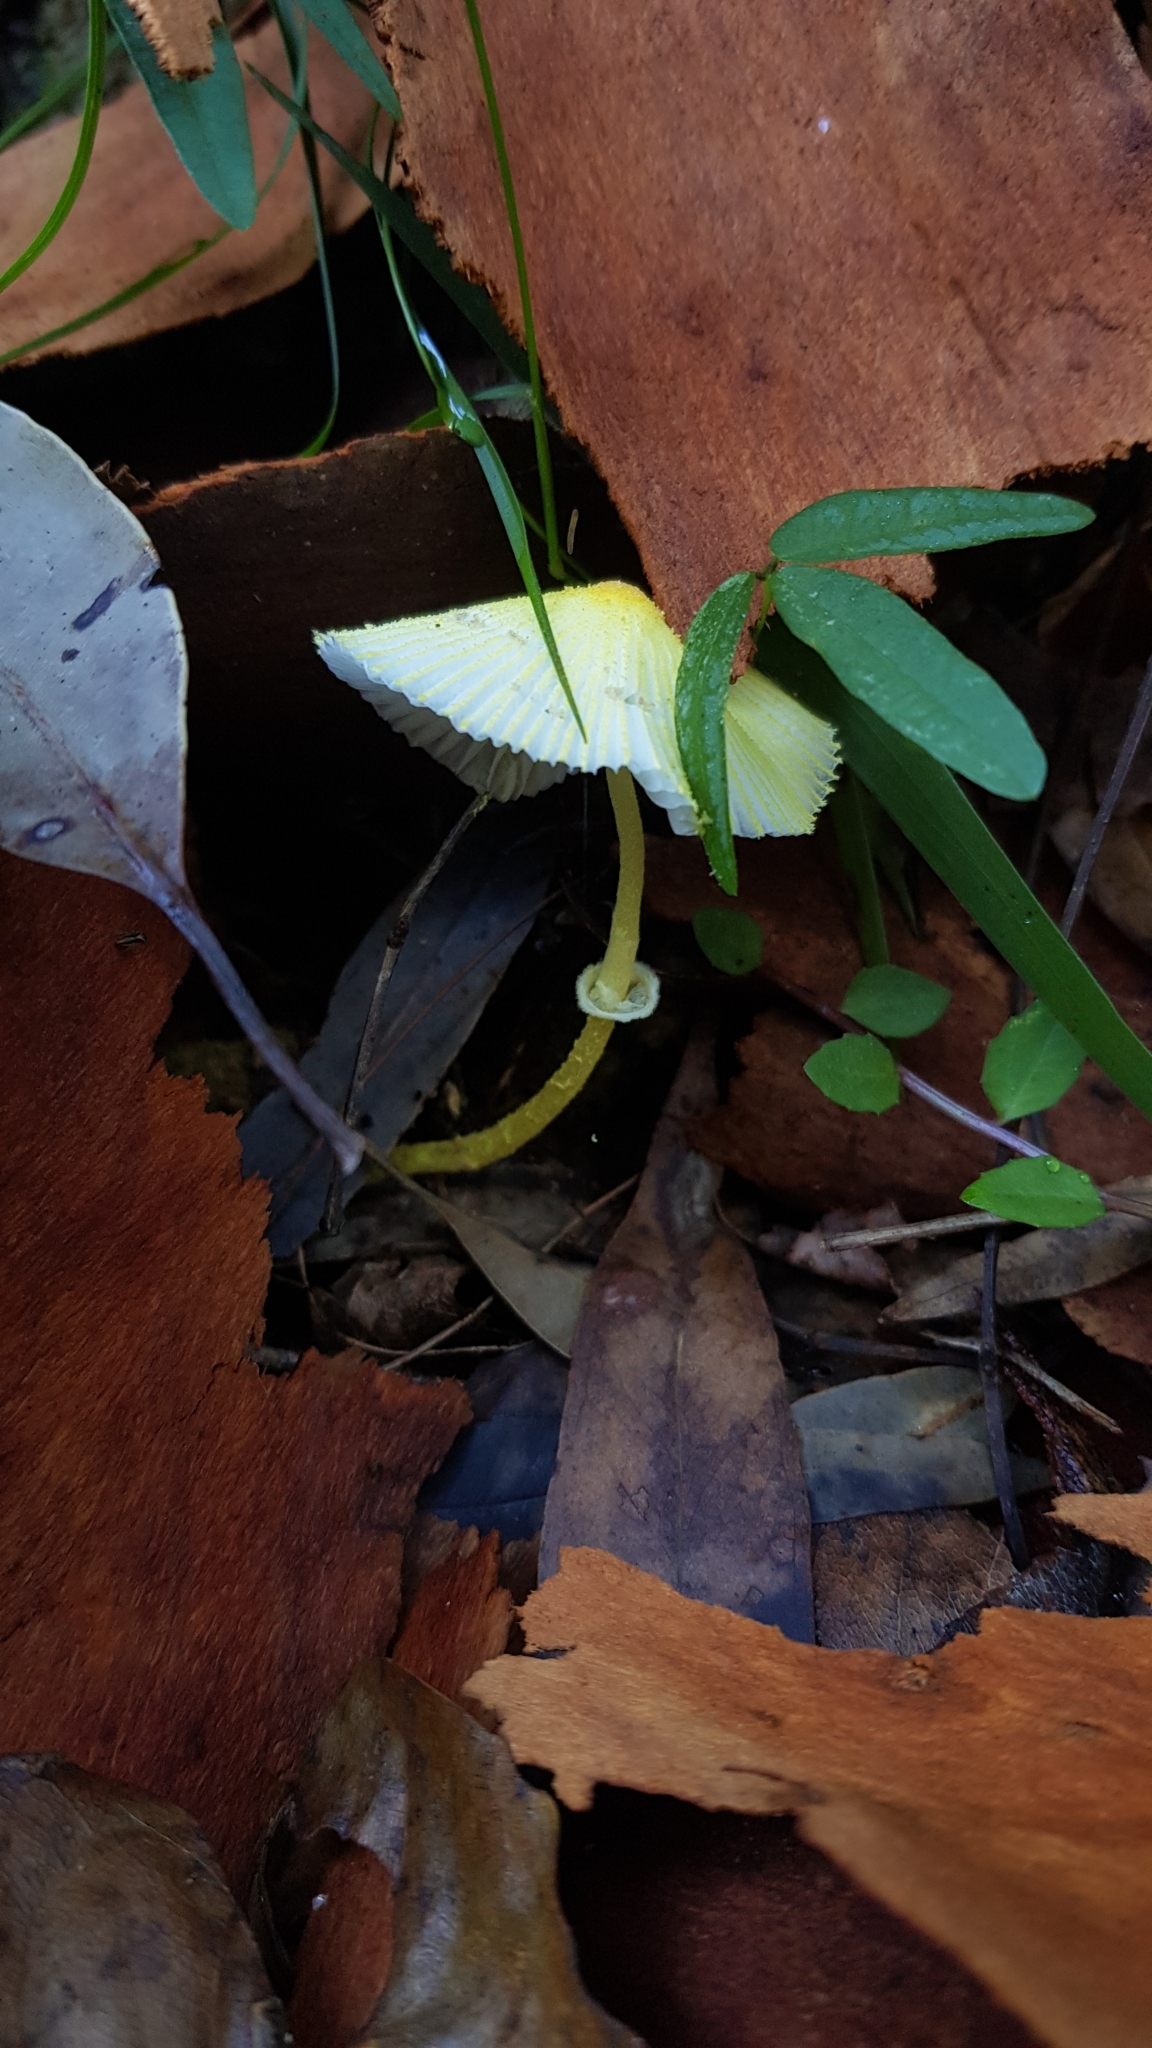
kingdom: Fungi
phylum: Basidiomycota
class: Agaricomycetes
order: Agaricales
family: Agaricaceae
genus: Leucocoprinus
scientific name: Leucocoprinus fragilissimus
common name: Fragile dapperling
